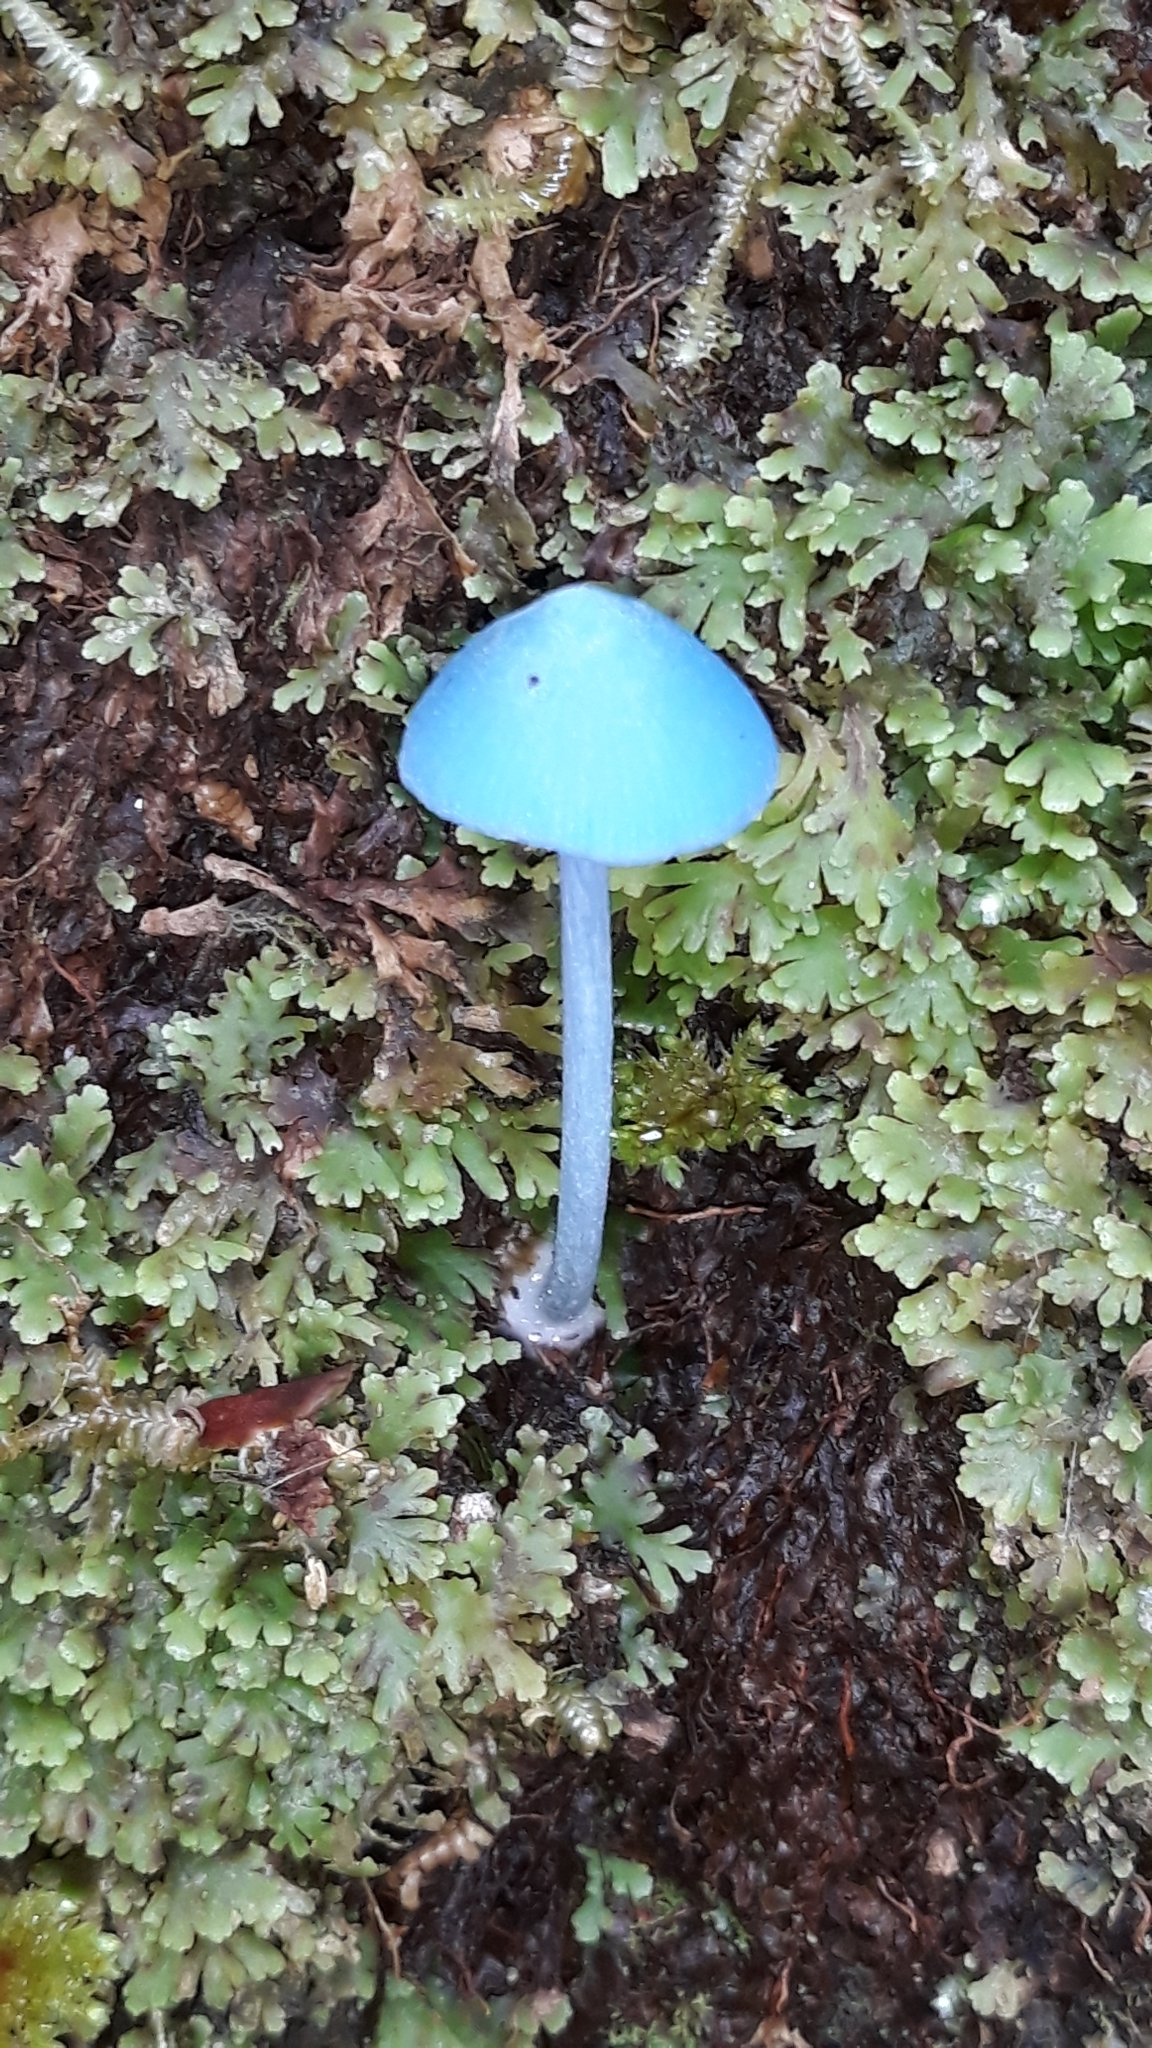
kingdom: Fungi
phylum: Basidiomycota
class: Agaricomycetes
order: Agaricales
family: Entolomataceae
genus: Entoloma
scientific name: Entoloma hochstetteri
